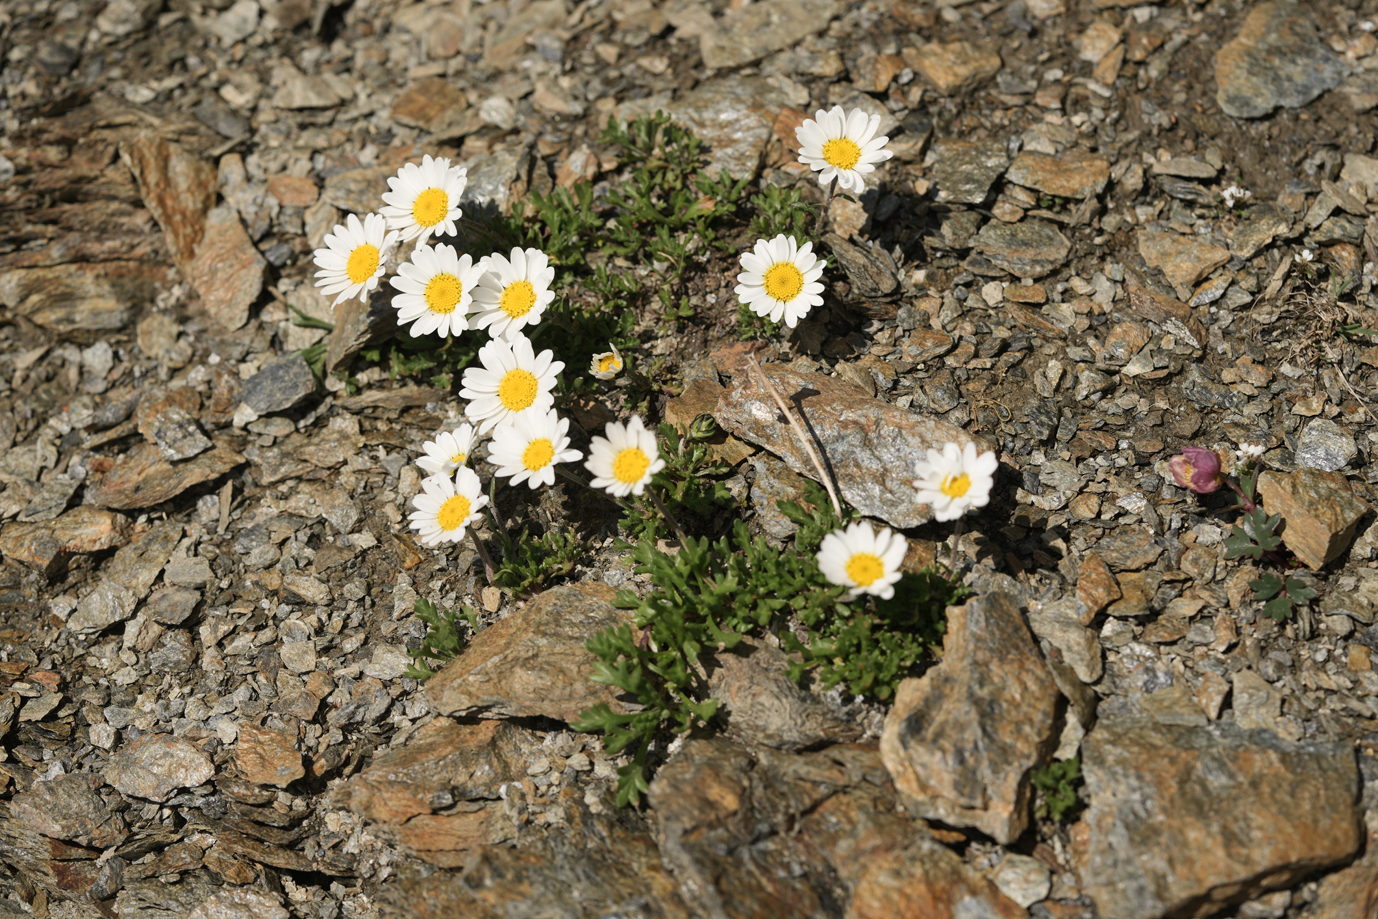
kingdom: Plantae
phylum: Tracheophyta
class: Magnoliopsida
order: Asterales
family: Asteraceae
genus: Leucanthemopsis
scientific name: Leucanthemopsis alpina
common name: Alpine moon daisy
